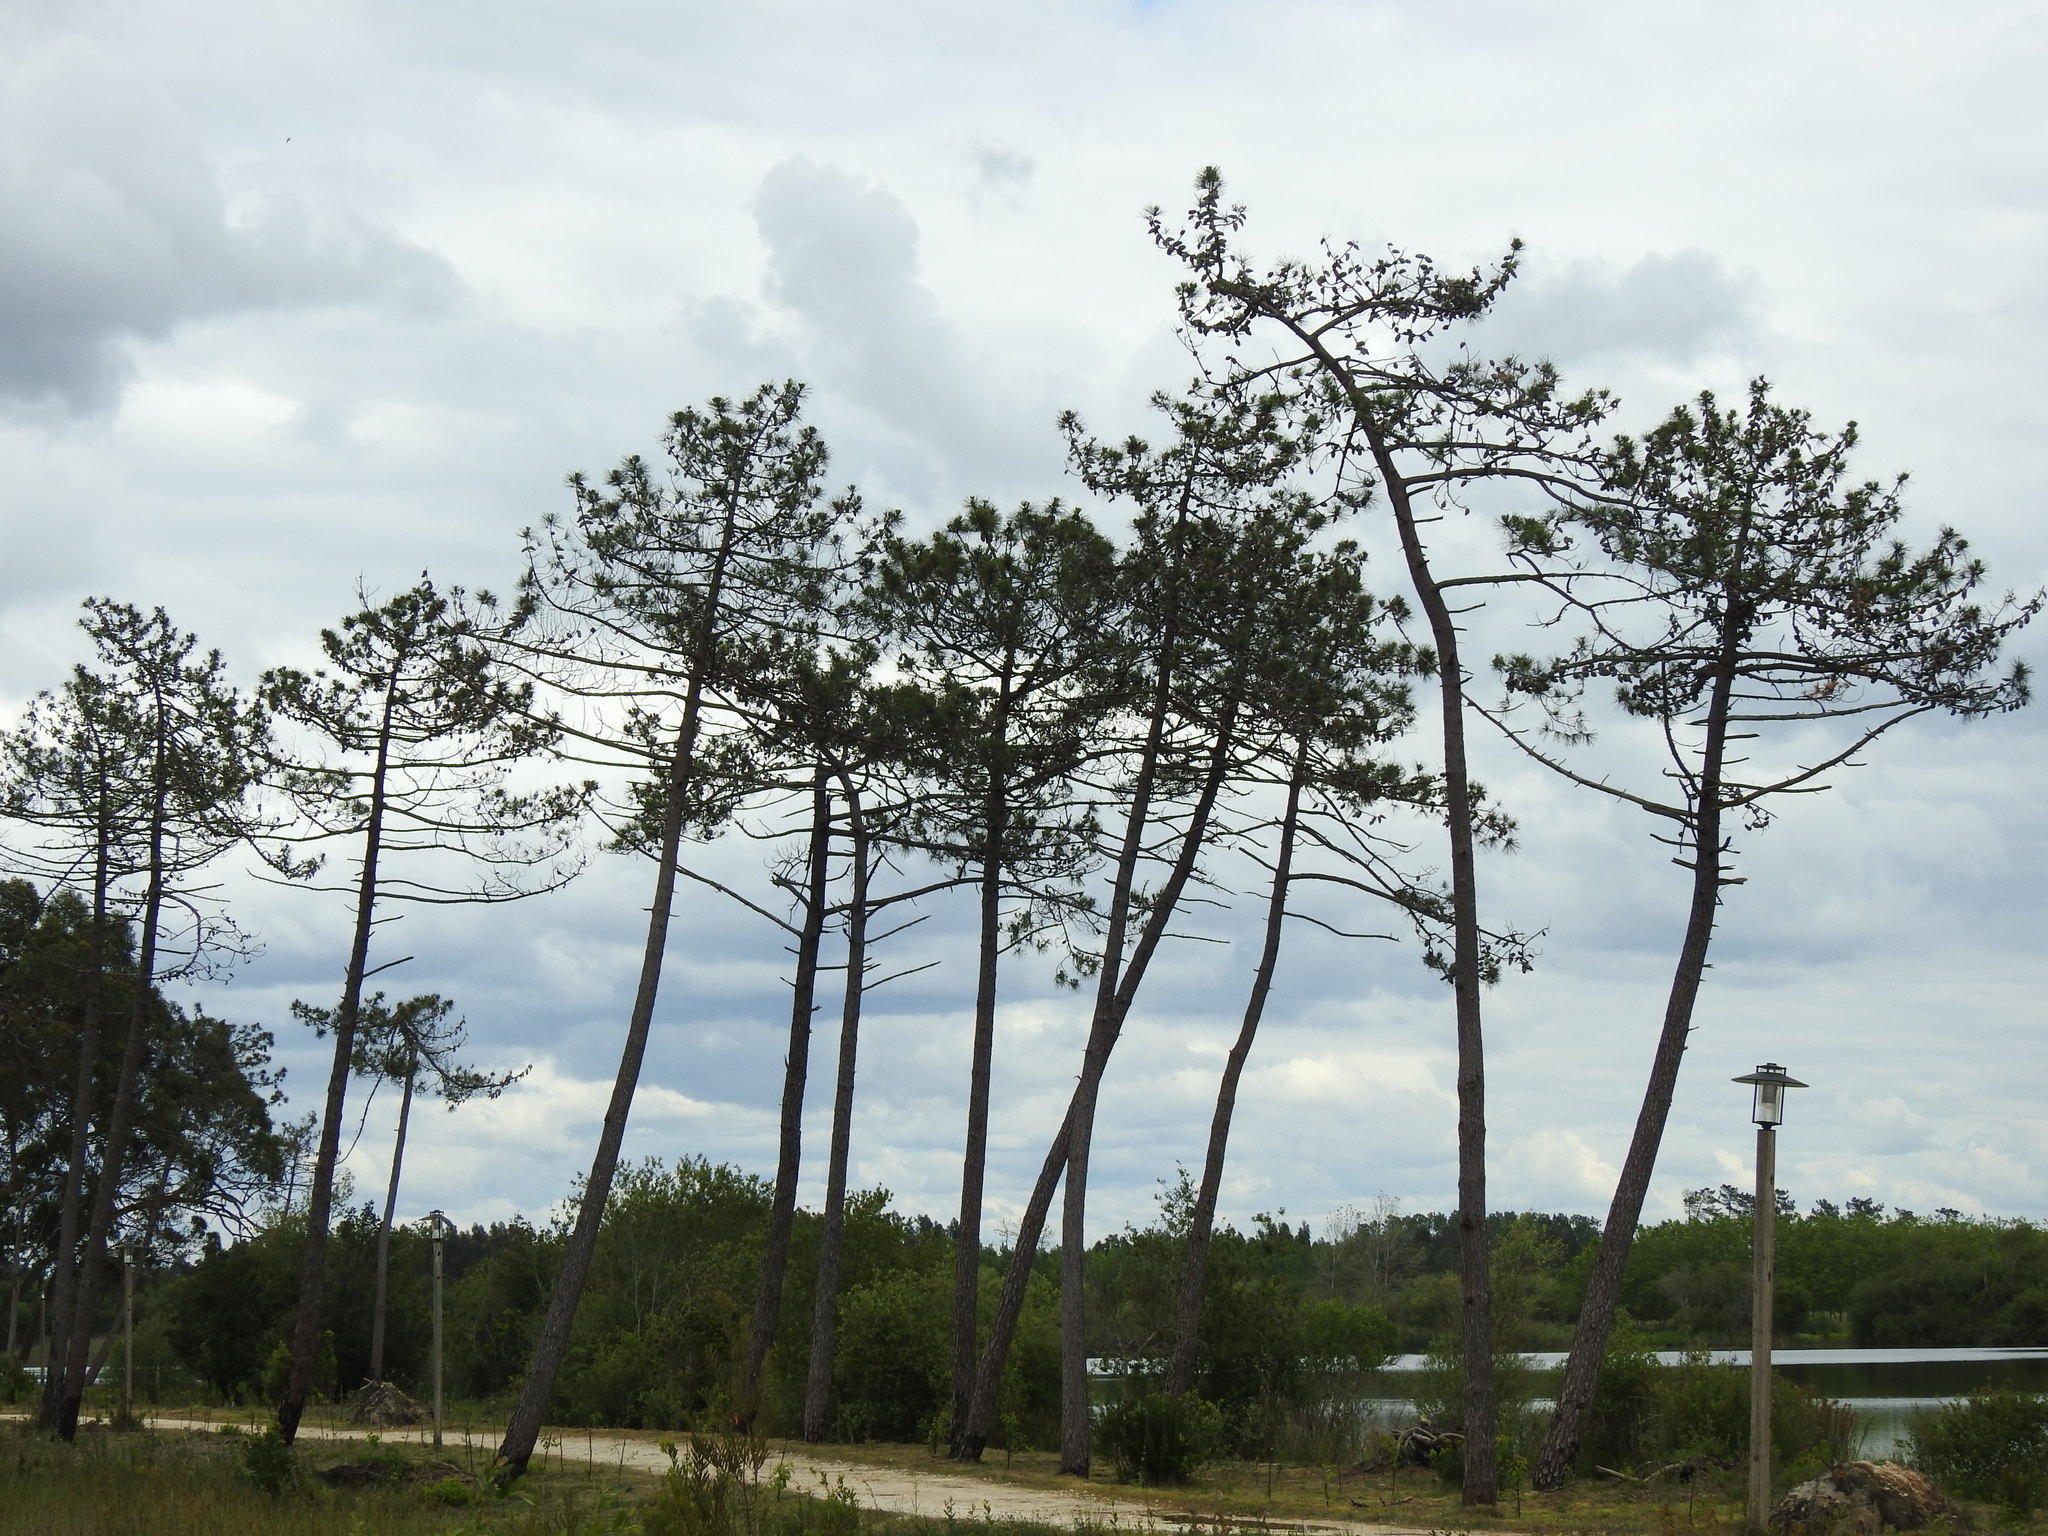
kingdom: Plantae
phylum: Tracheophyta
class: Pinopsida
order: Pinales
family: Pinaceae
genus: Pinus
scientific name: Pinus pinaster
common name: Maritime pine
